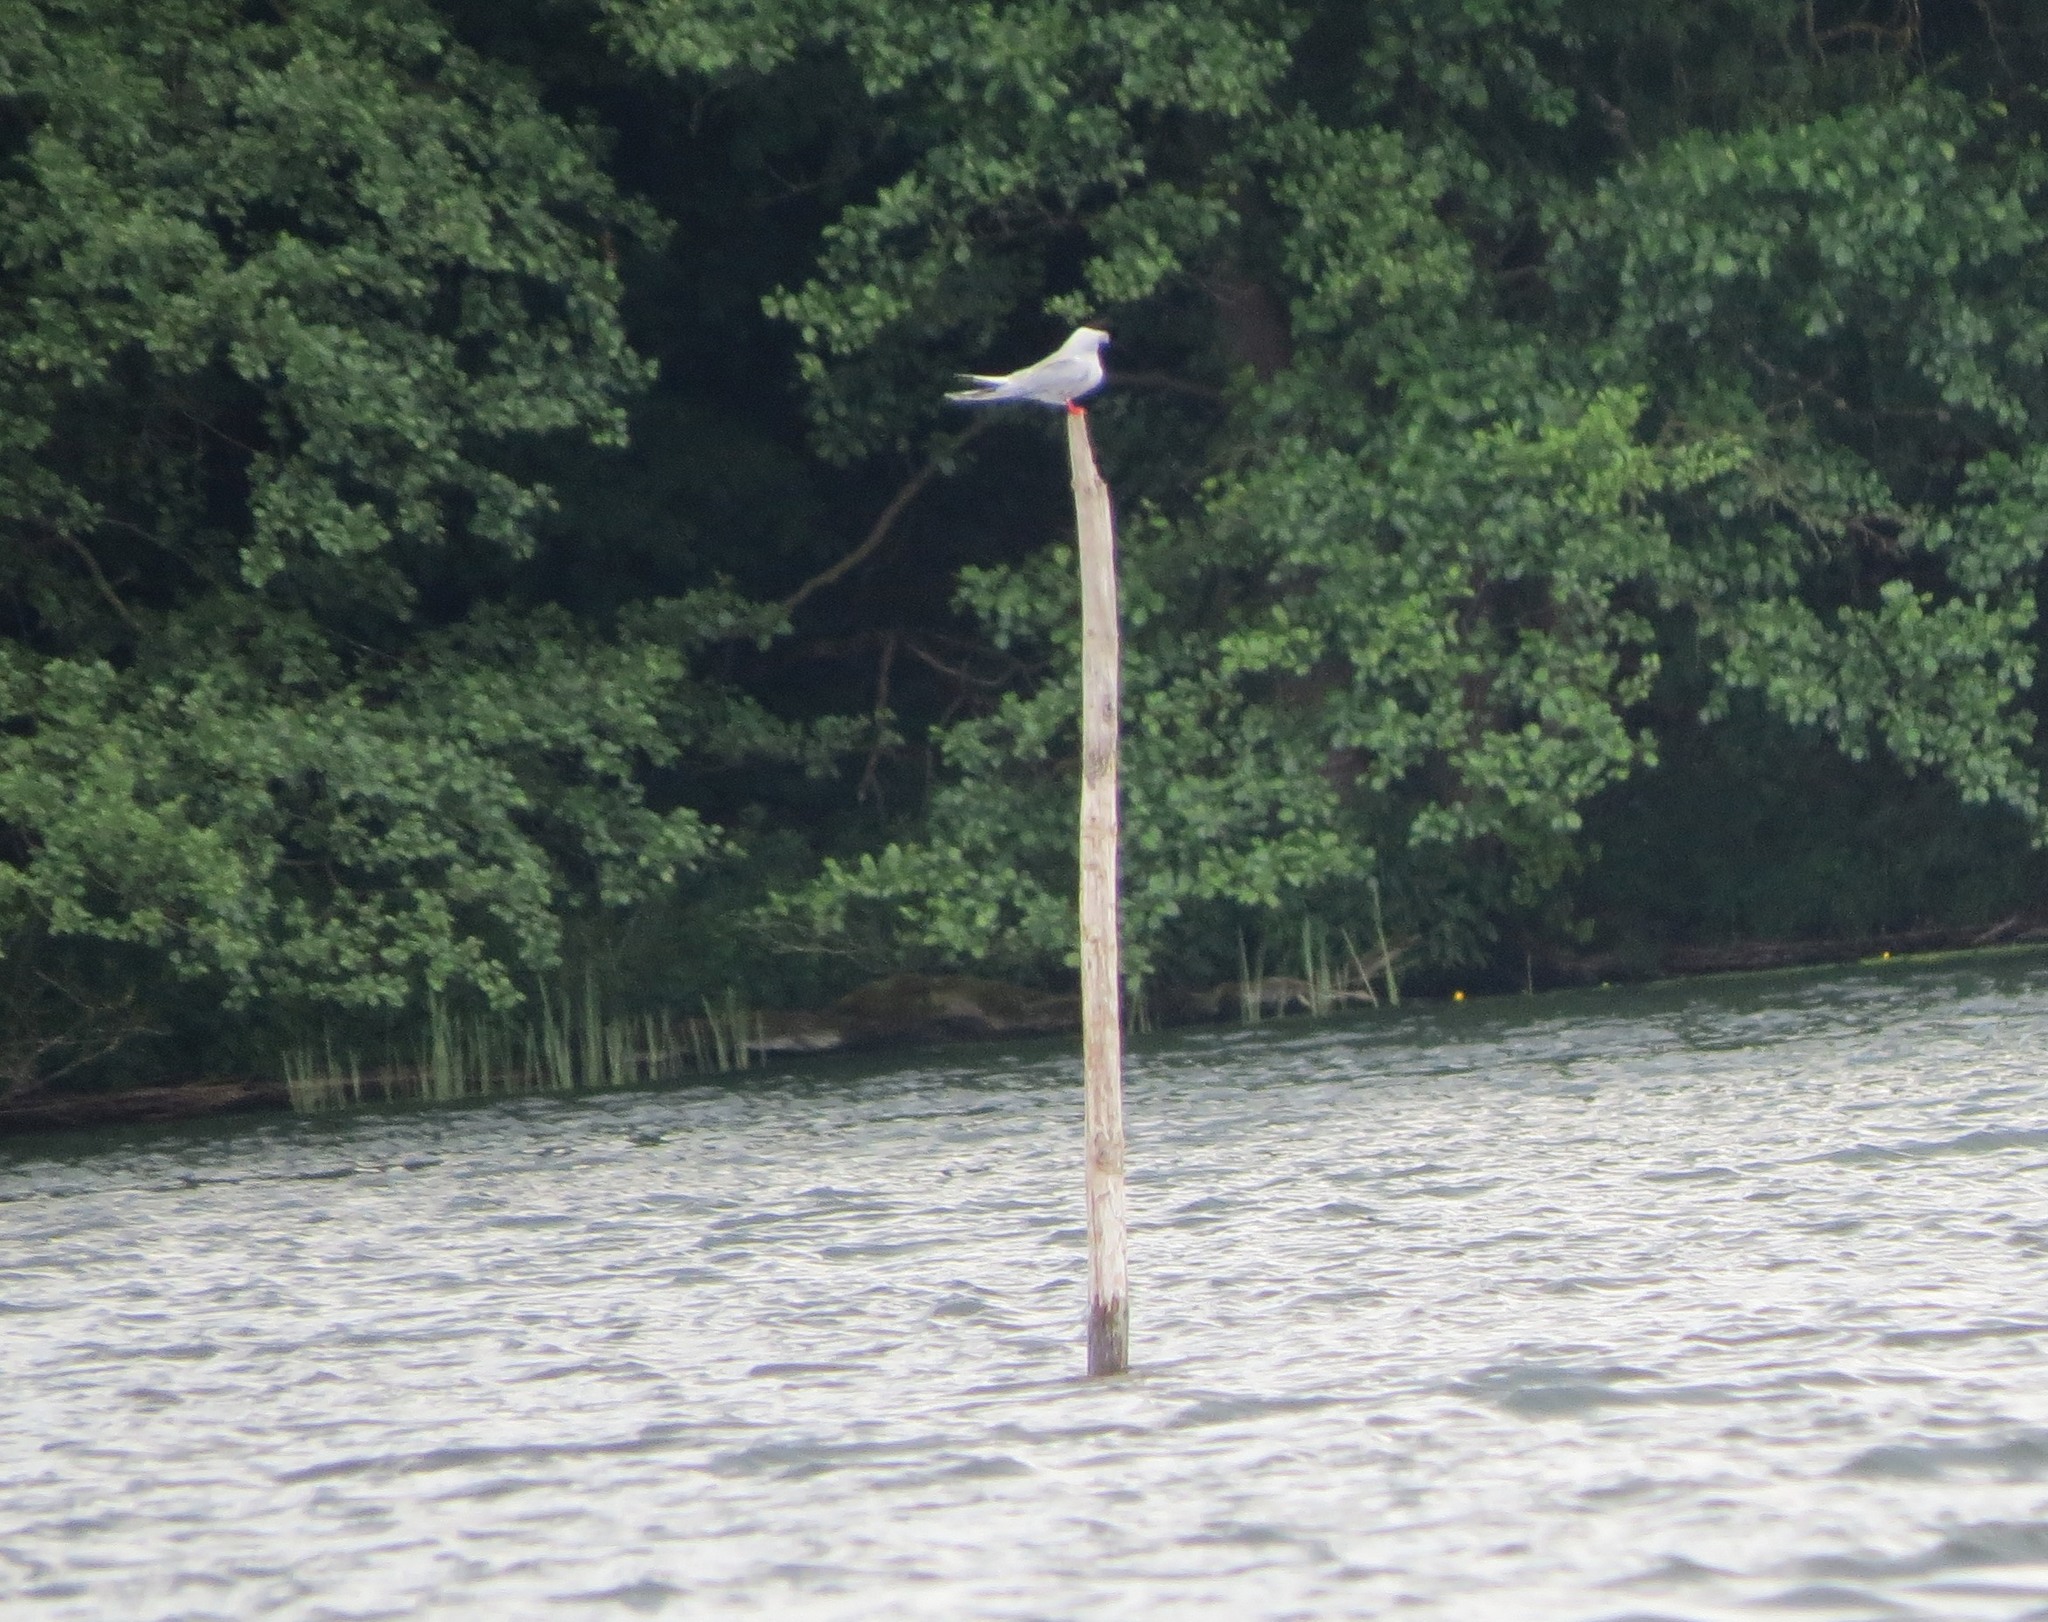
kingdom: Animalia
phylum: Chordata
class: Aves
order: Charadriiformes
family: Laridae
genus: Sterna
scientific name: Sterna hirundo
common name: Common tern
